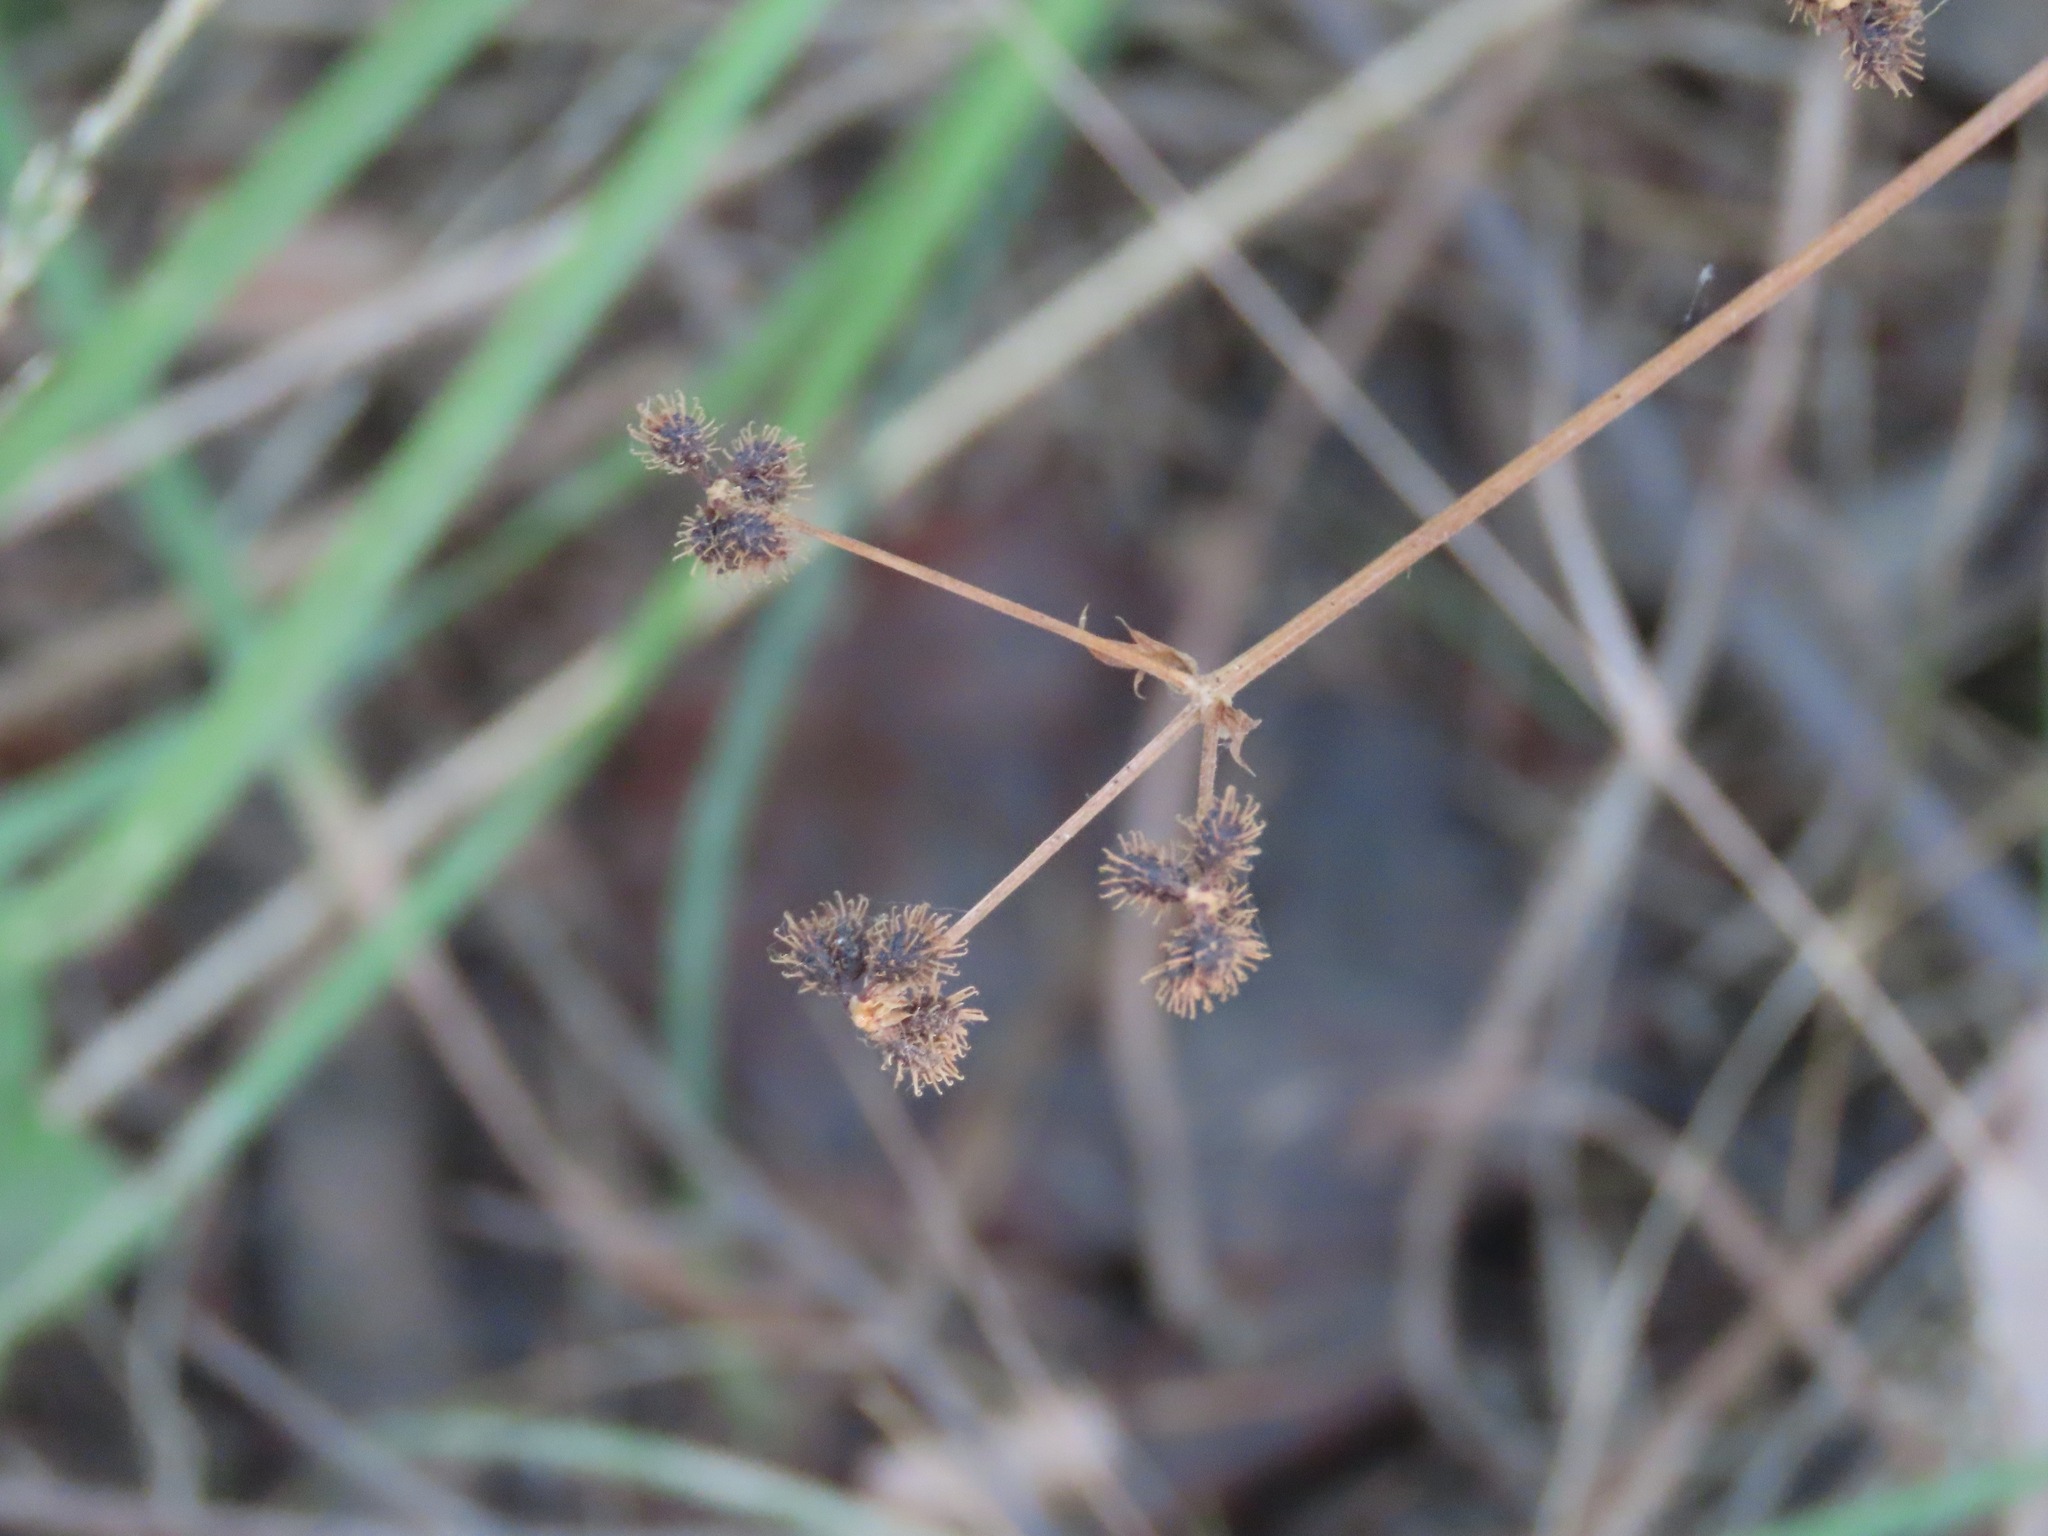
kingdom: Plantae
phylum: Tracheophyta
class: Magnoliopsida
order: Apiales
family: Apiaceae
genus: Sanicula
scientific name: Sanicula crassicaulis
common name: Western snakeroot
